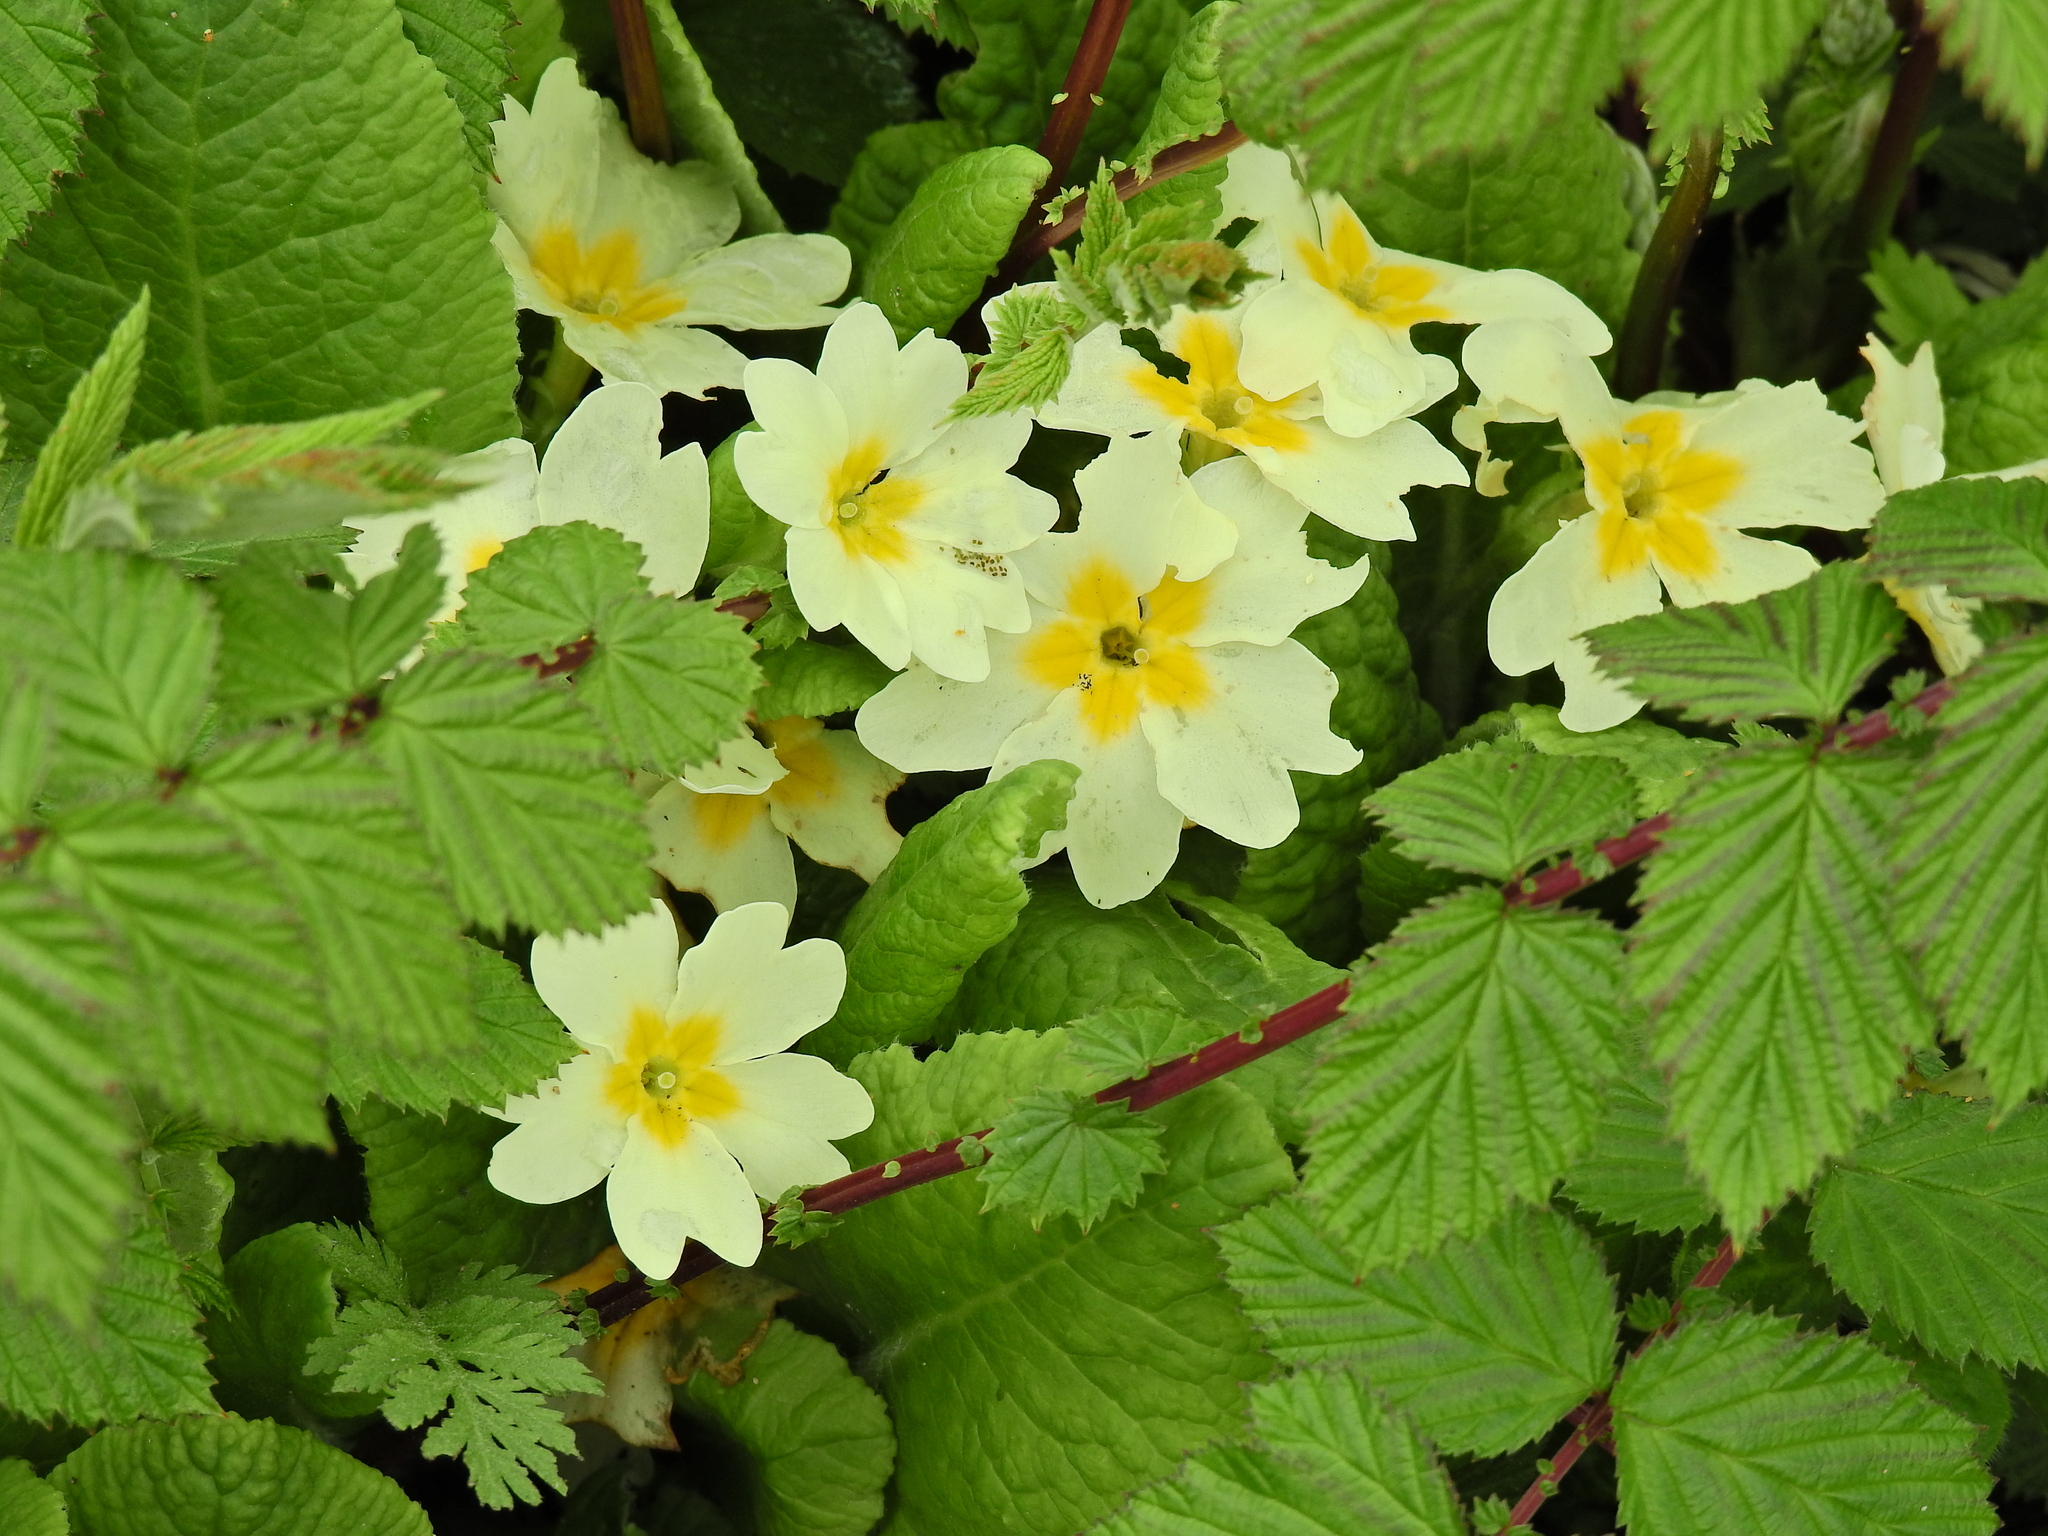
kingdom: Plantae
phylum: Tracheophyta
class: Magnoliopsida
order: Ericales
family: Primulaceae
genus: Primula
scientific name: Primula vulgaris
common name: Primrose
